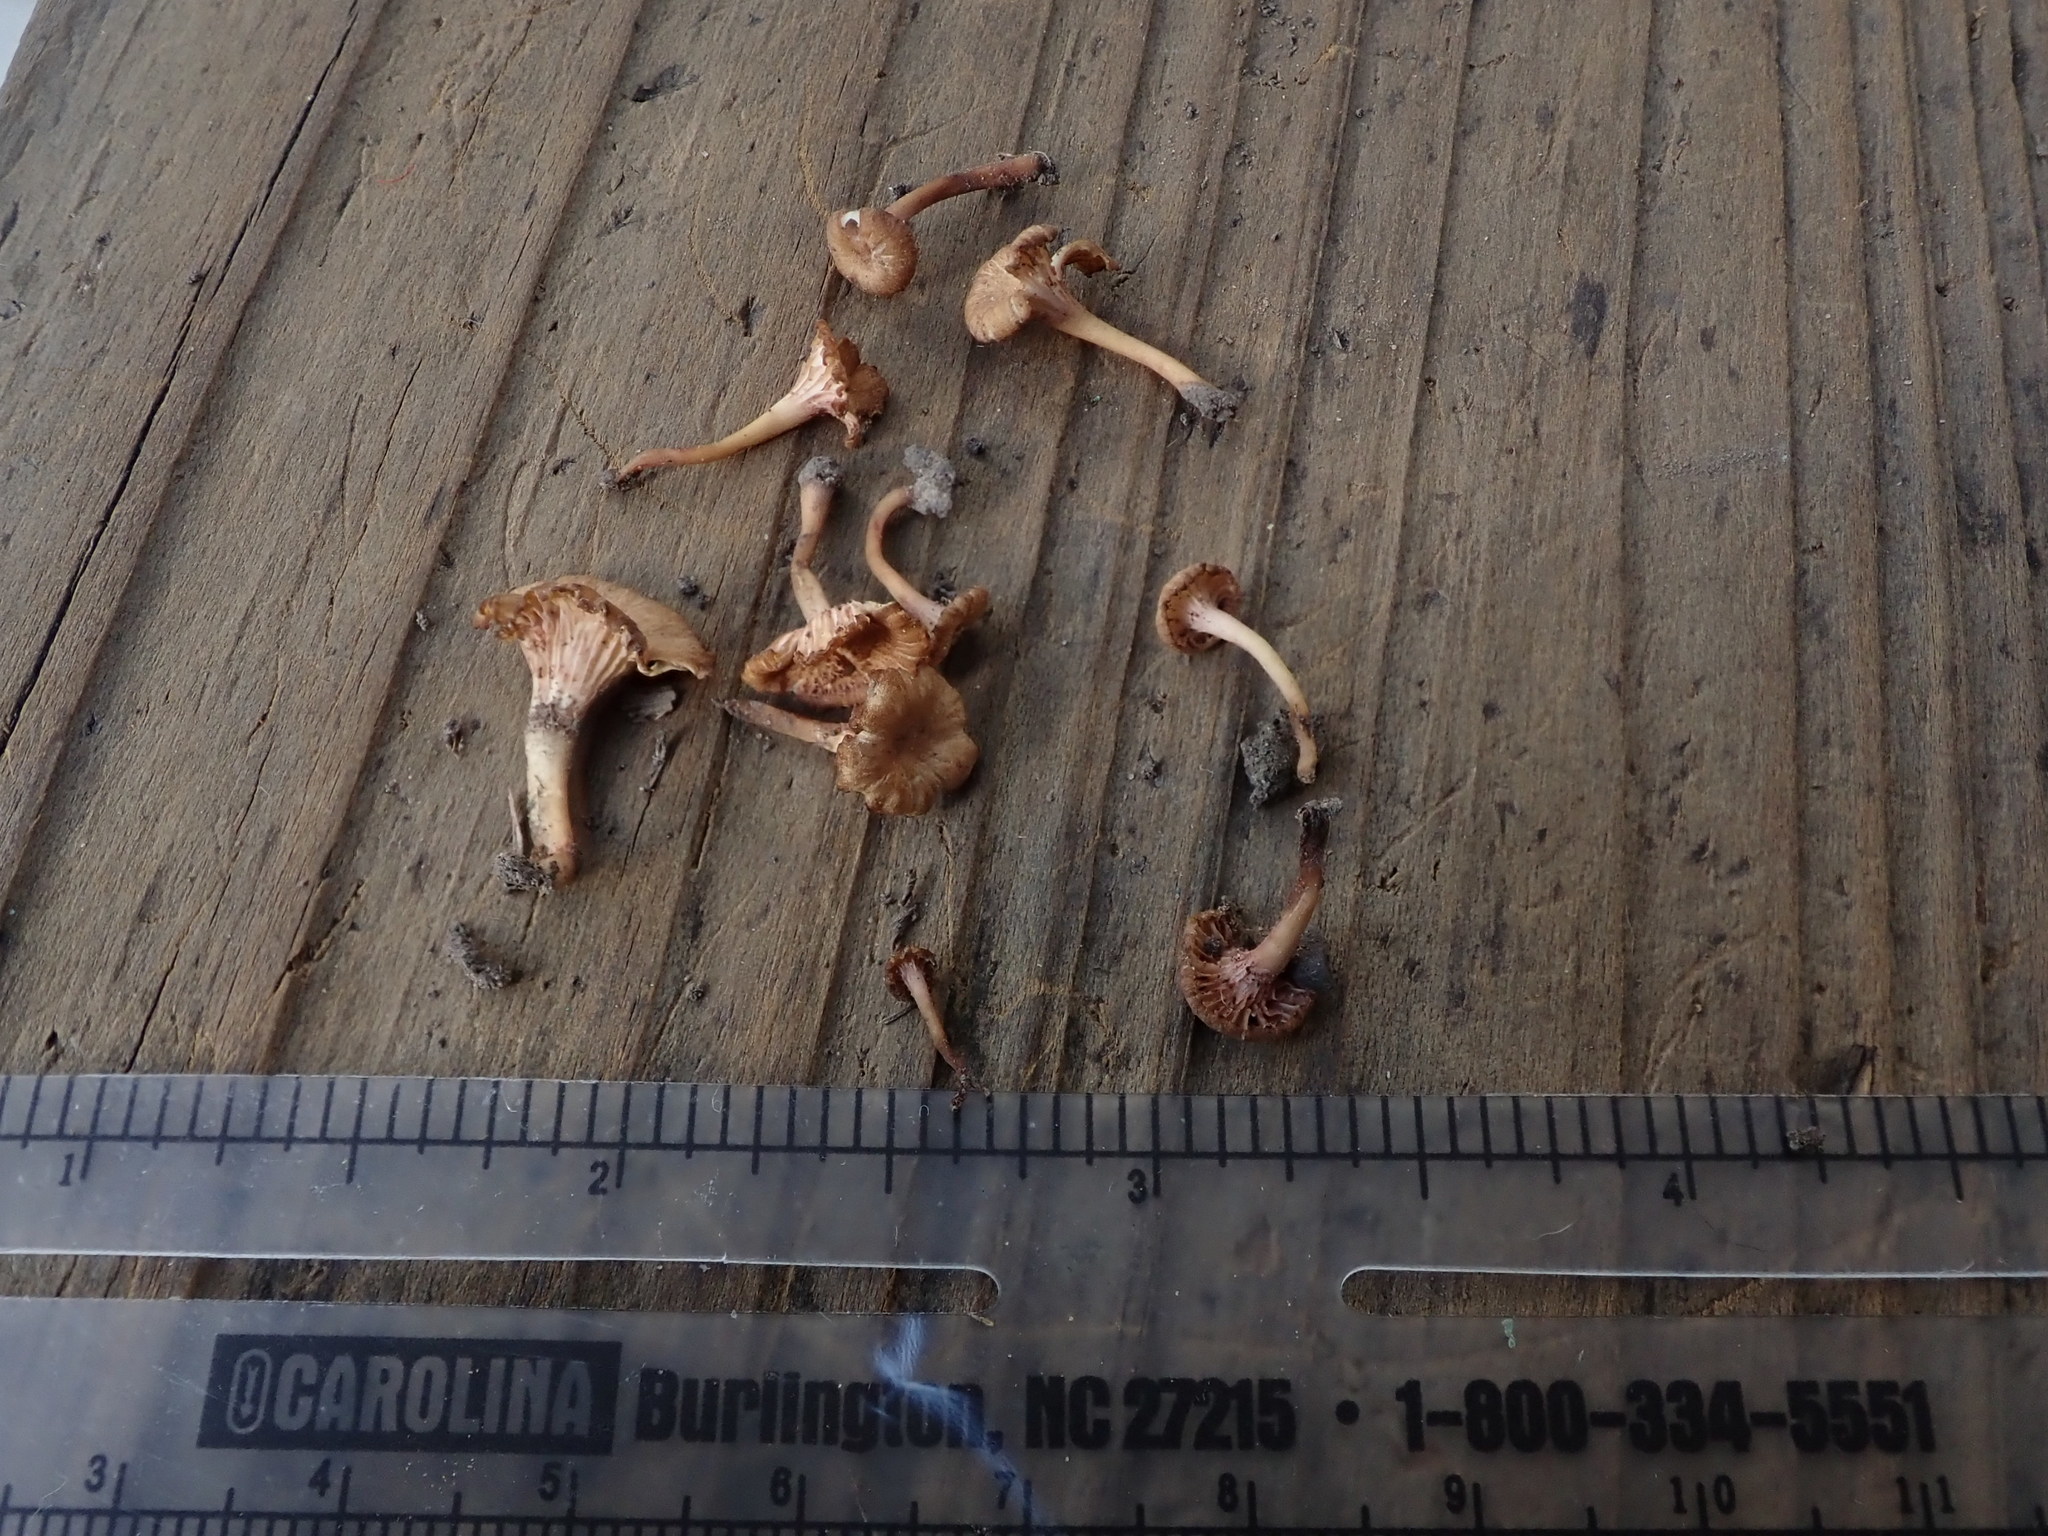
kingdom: Fungi
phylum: Basidiomycota
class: Agaricomycetes
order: Hymenochaetales
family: Rickenellaceae
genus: Contumyces
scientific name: Contumyces rosellus
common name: Rosy navel
